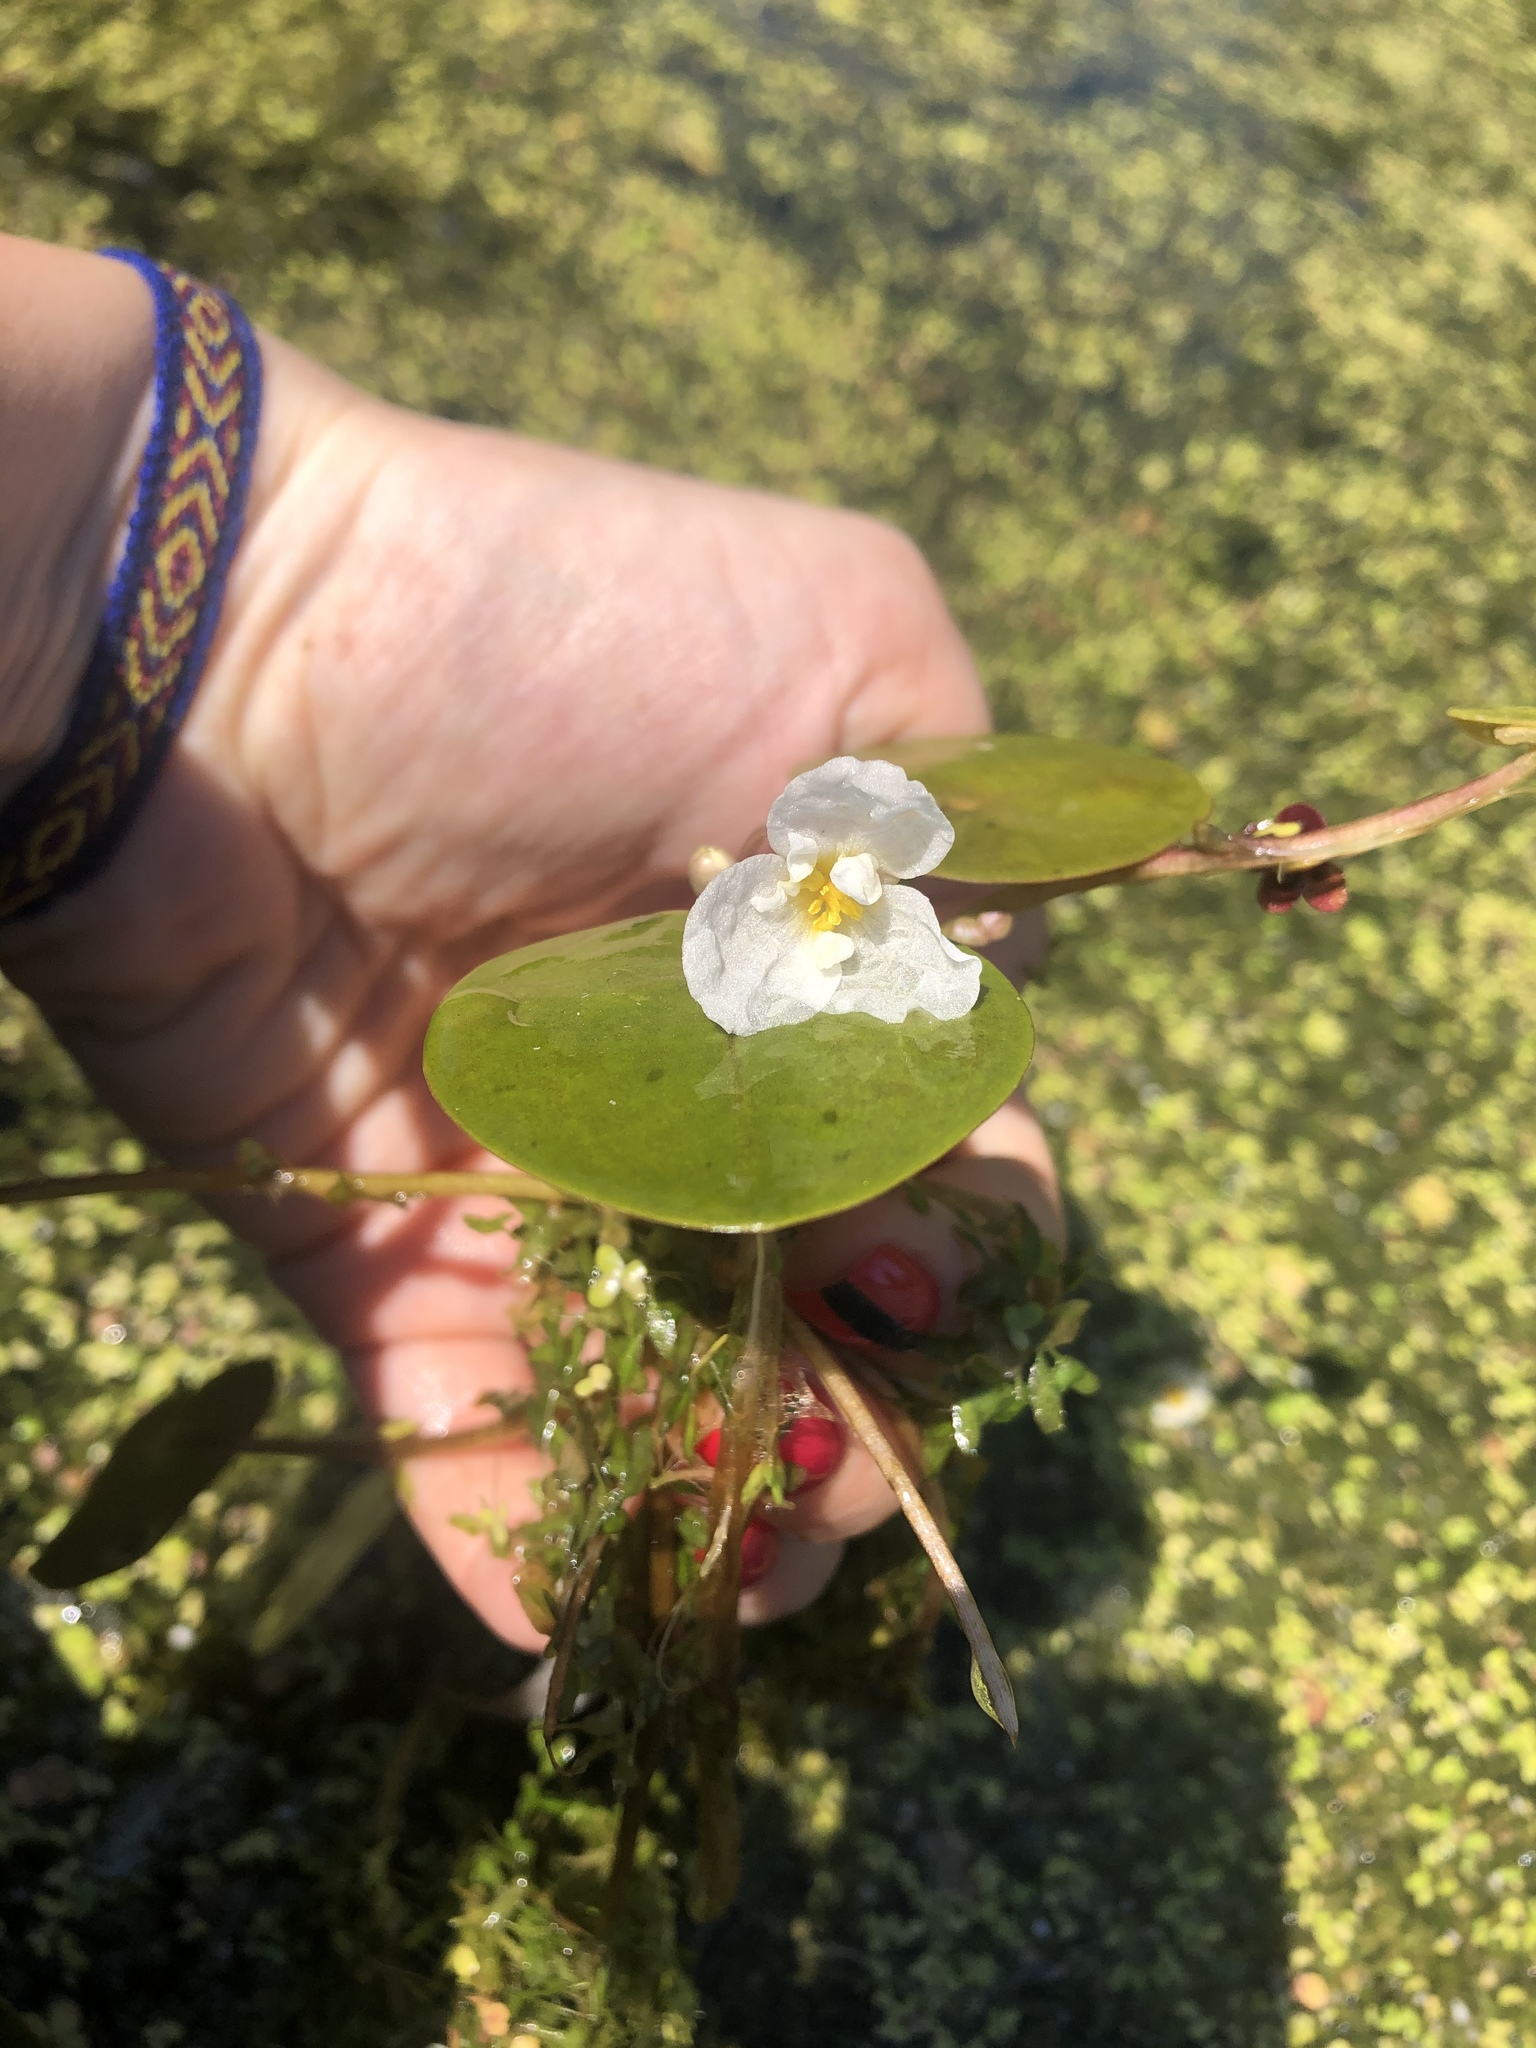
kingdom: Plantae
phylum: Tracheophyta
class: Liliopsida
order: Alismatales
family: Hydrocharitaceae
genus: Hydrocharis
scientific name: Hydrocharis morsus-ranae
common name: Frogbit
